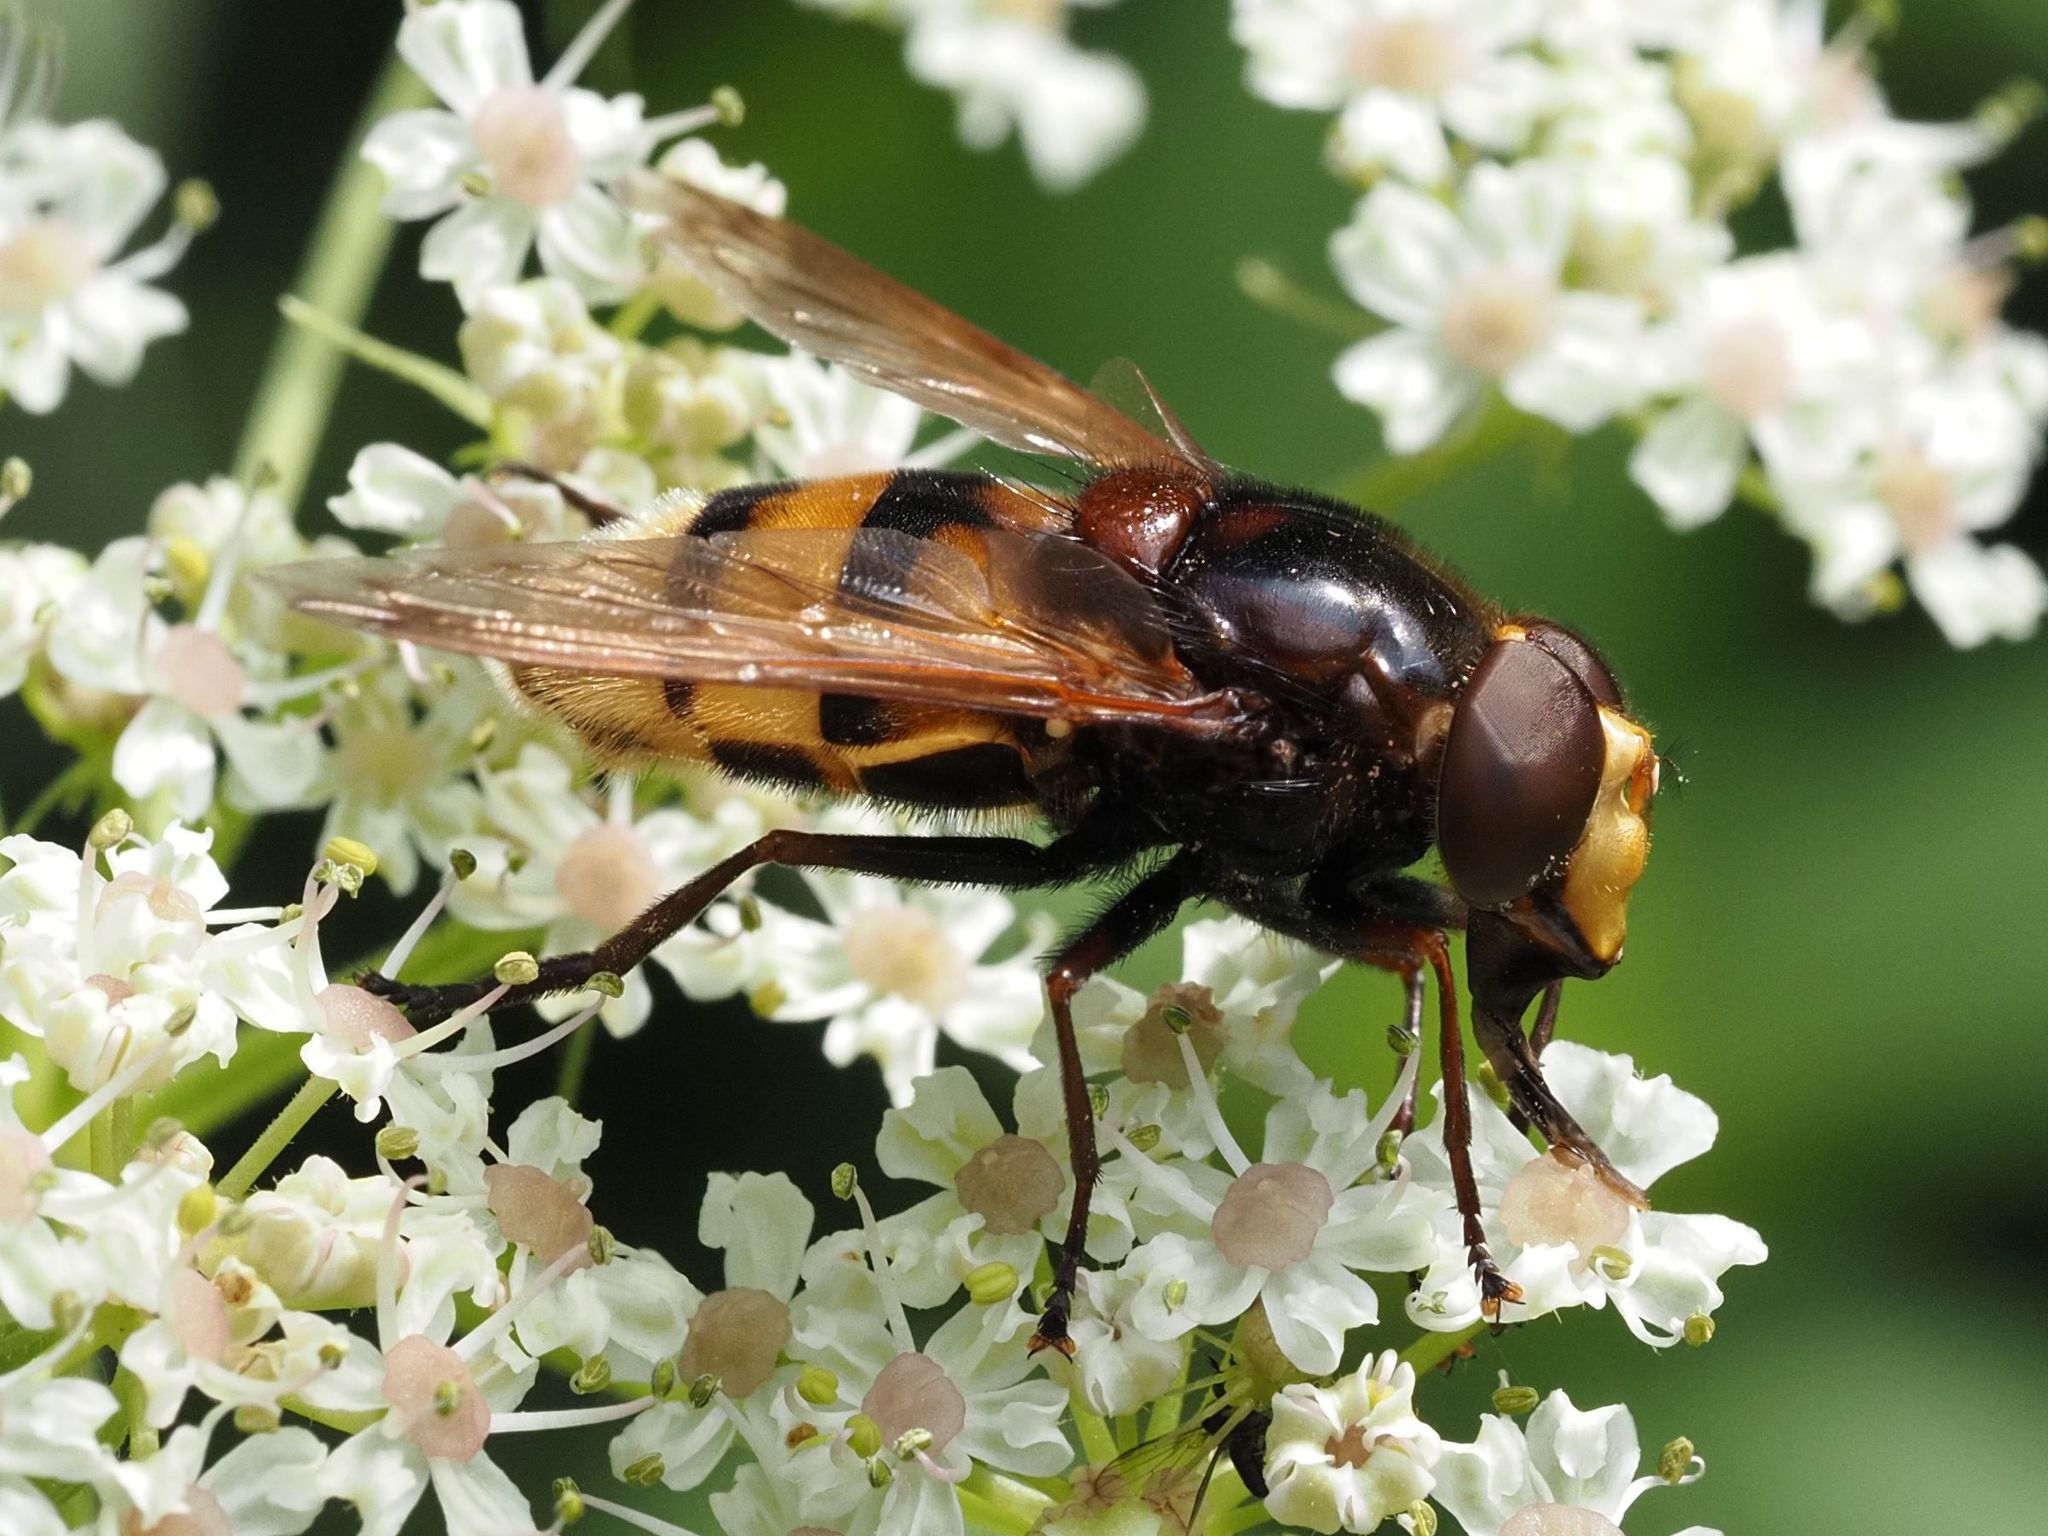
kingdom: Animalia
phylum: Arthropoda
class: Insecta
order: Diptera
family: Syrphidae
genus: Volucella
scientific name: Volucella zonaria
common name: Hornet hoverfly
